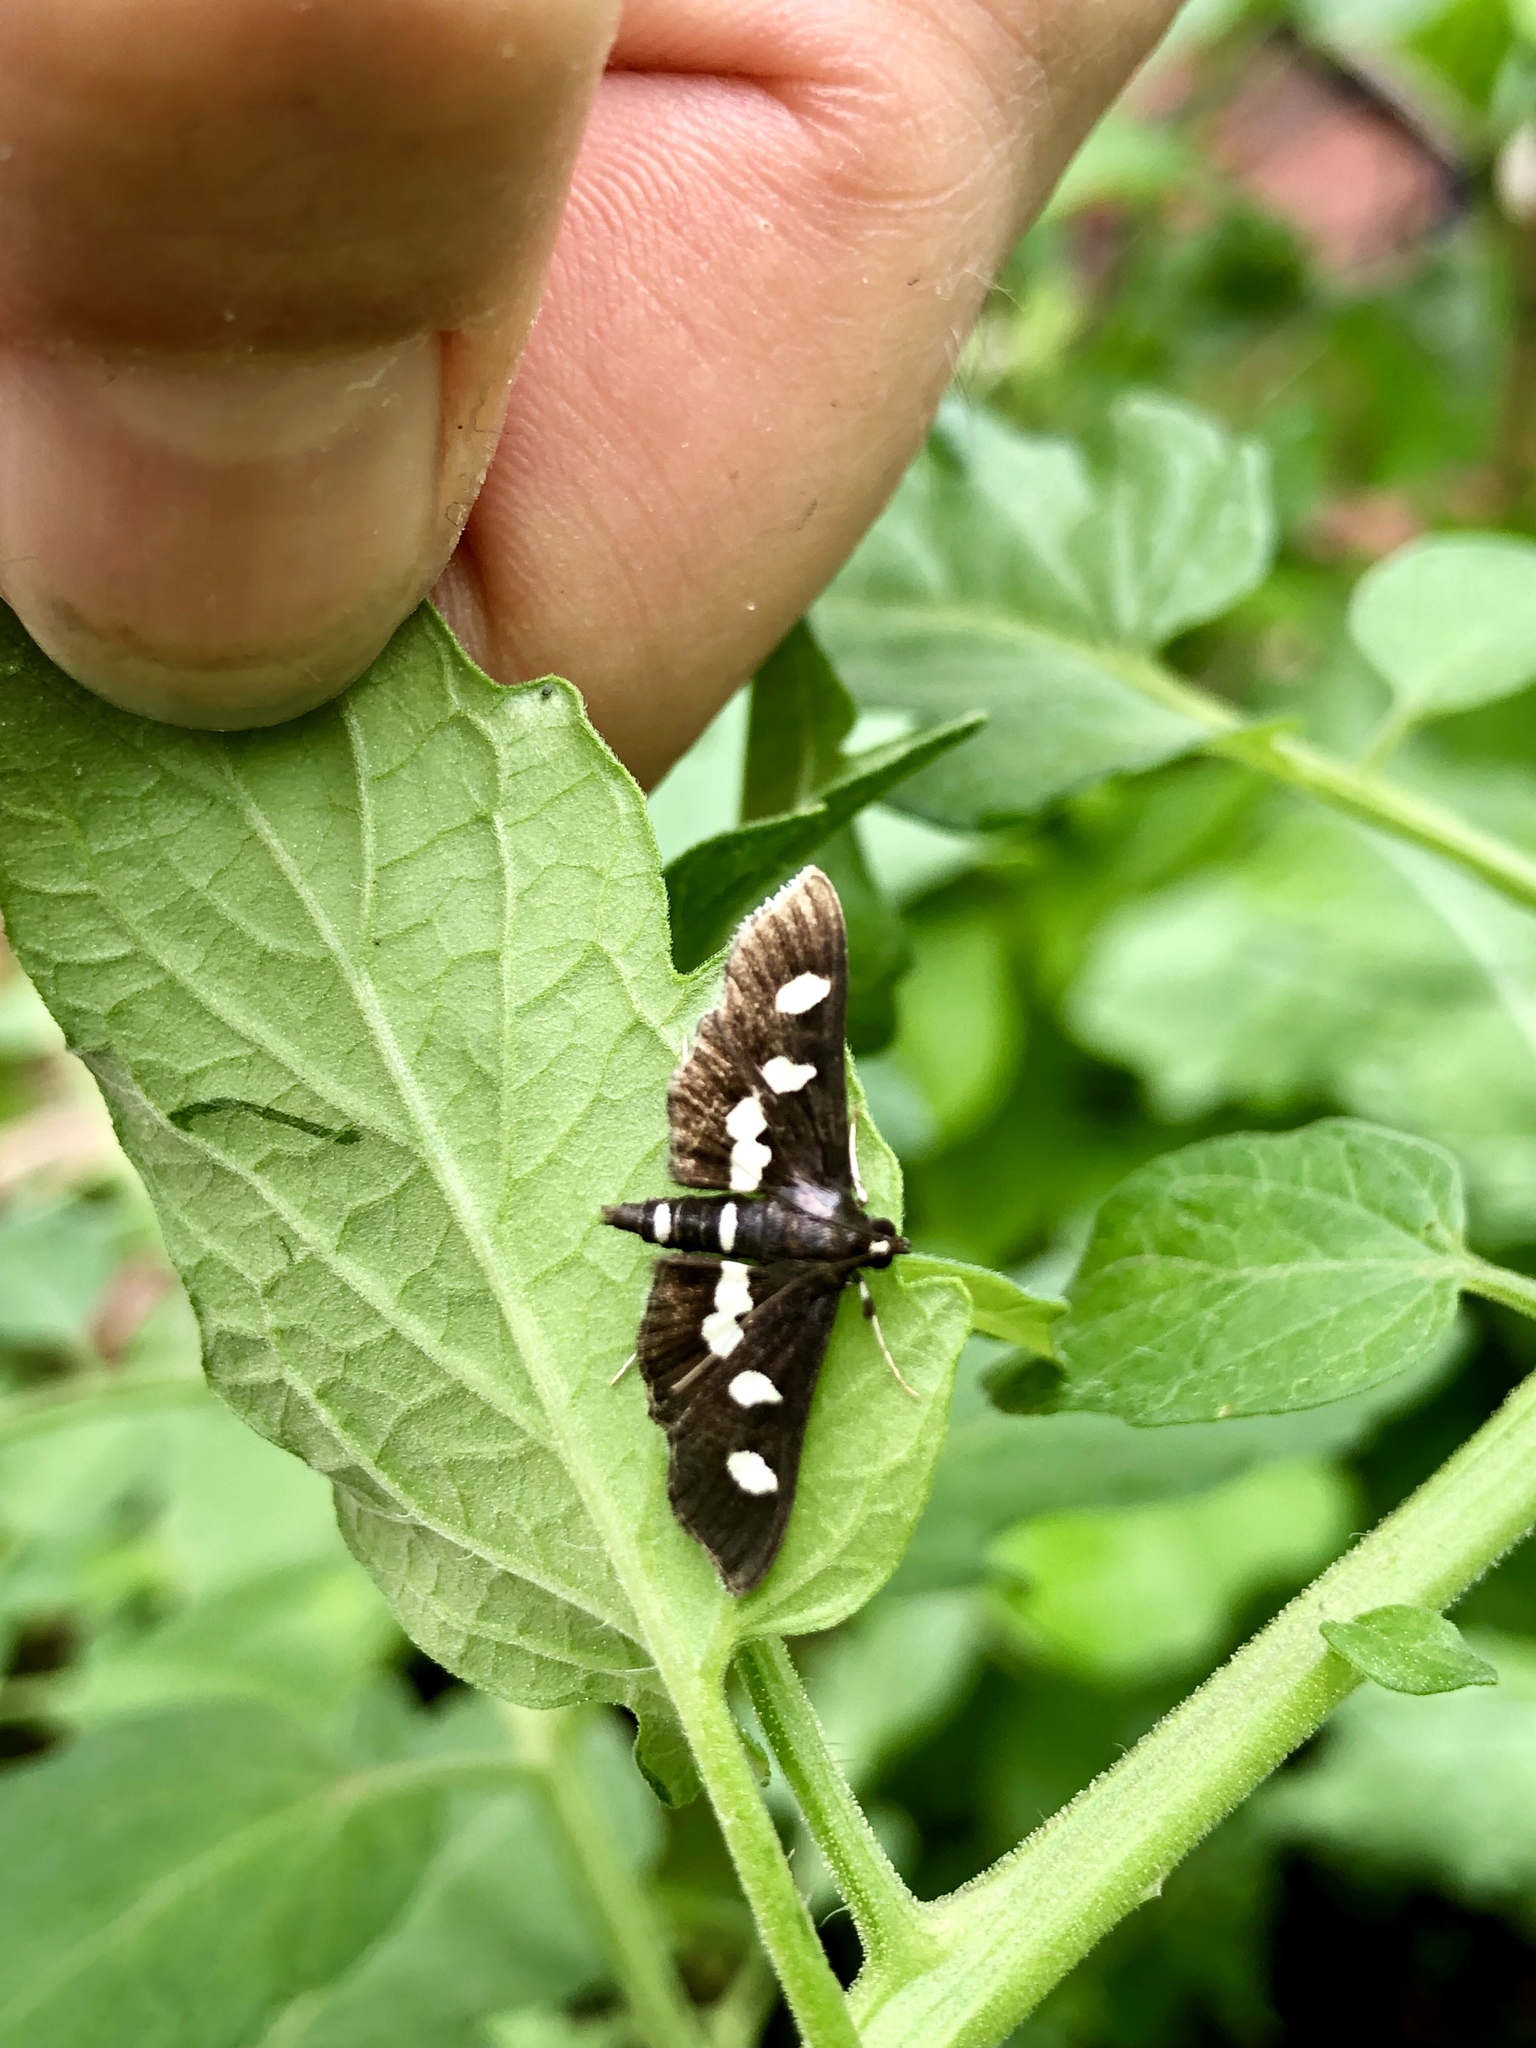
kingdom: Animalia
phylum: Arthropoda
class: Insecta
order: Lepidoptera
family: Crambidae
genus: Desmia
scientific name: Desmia
